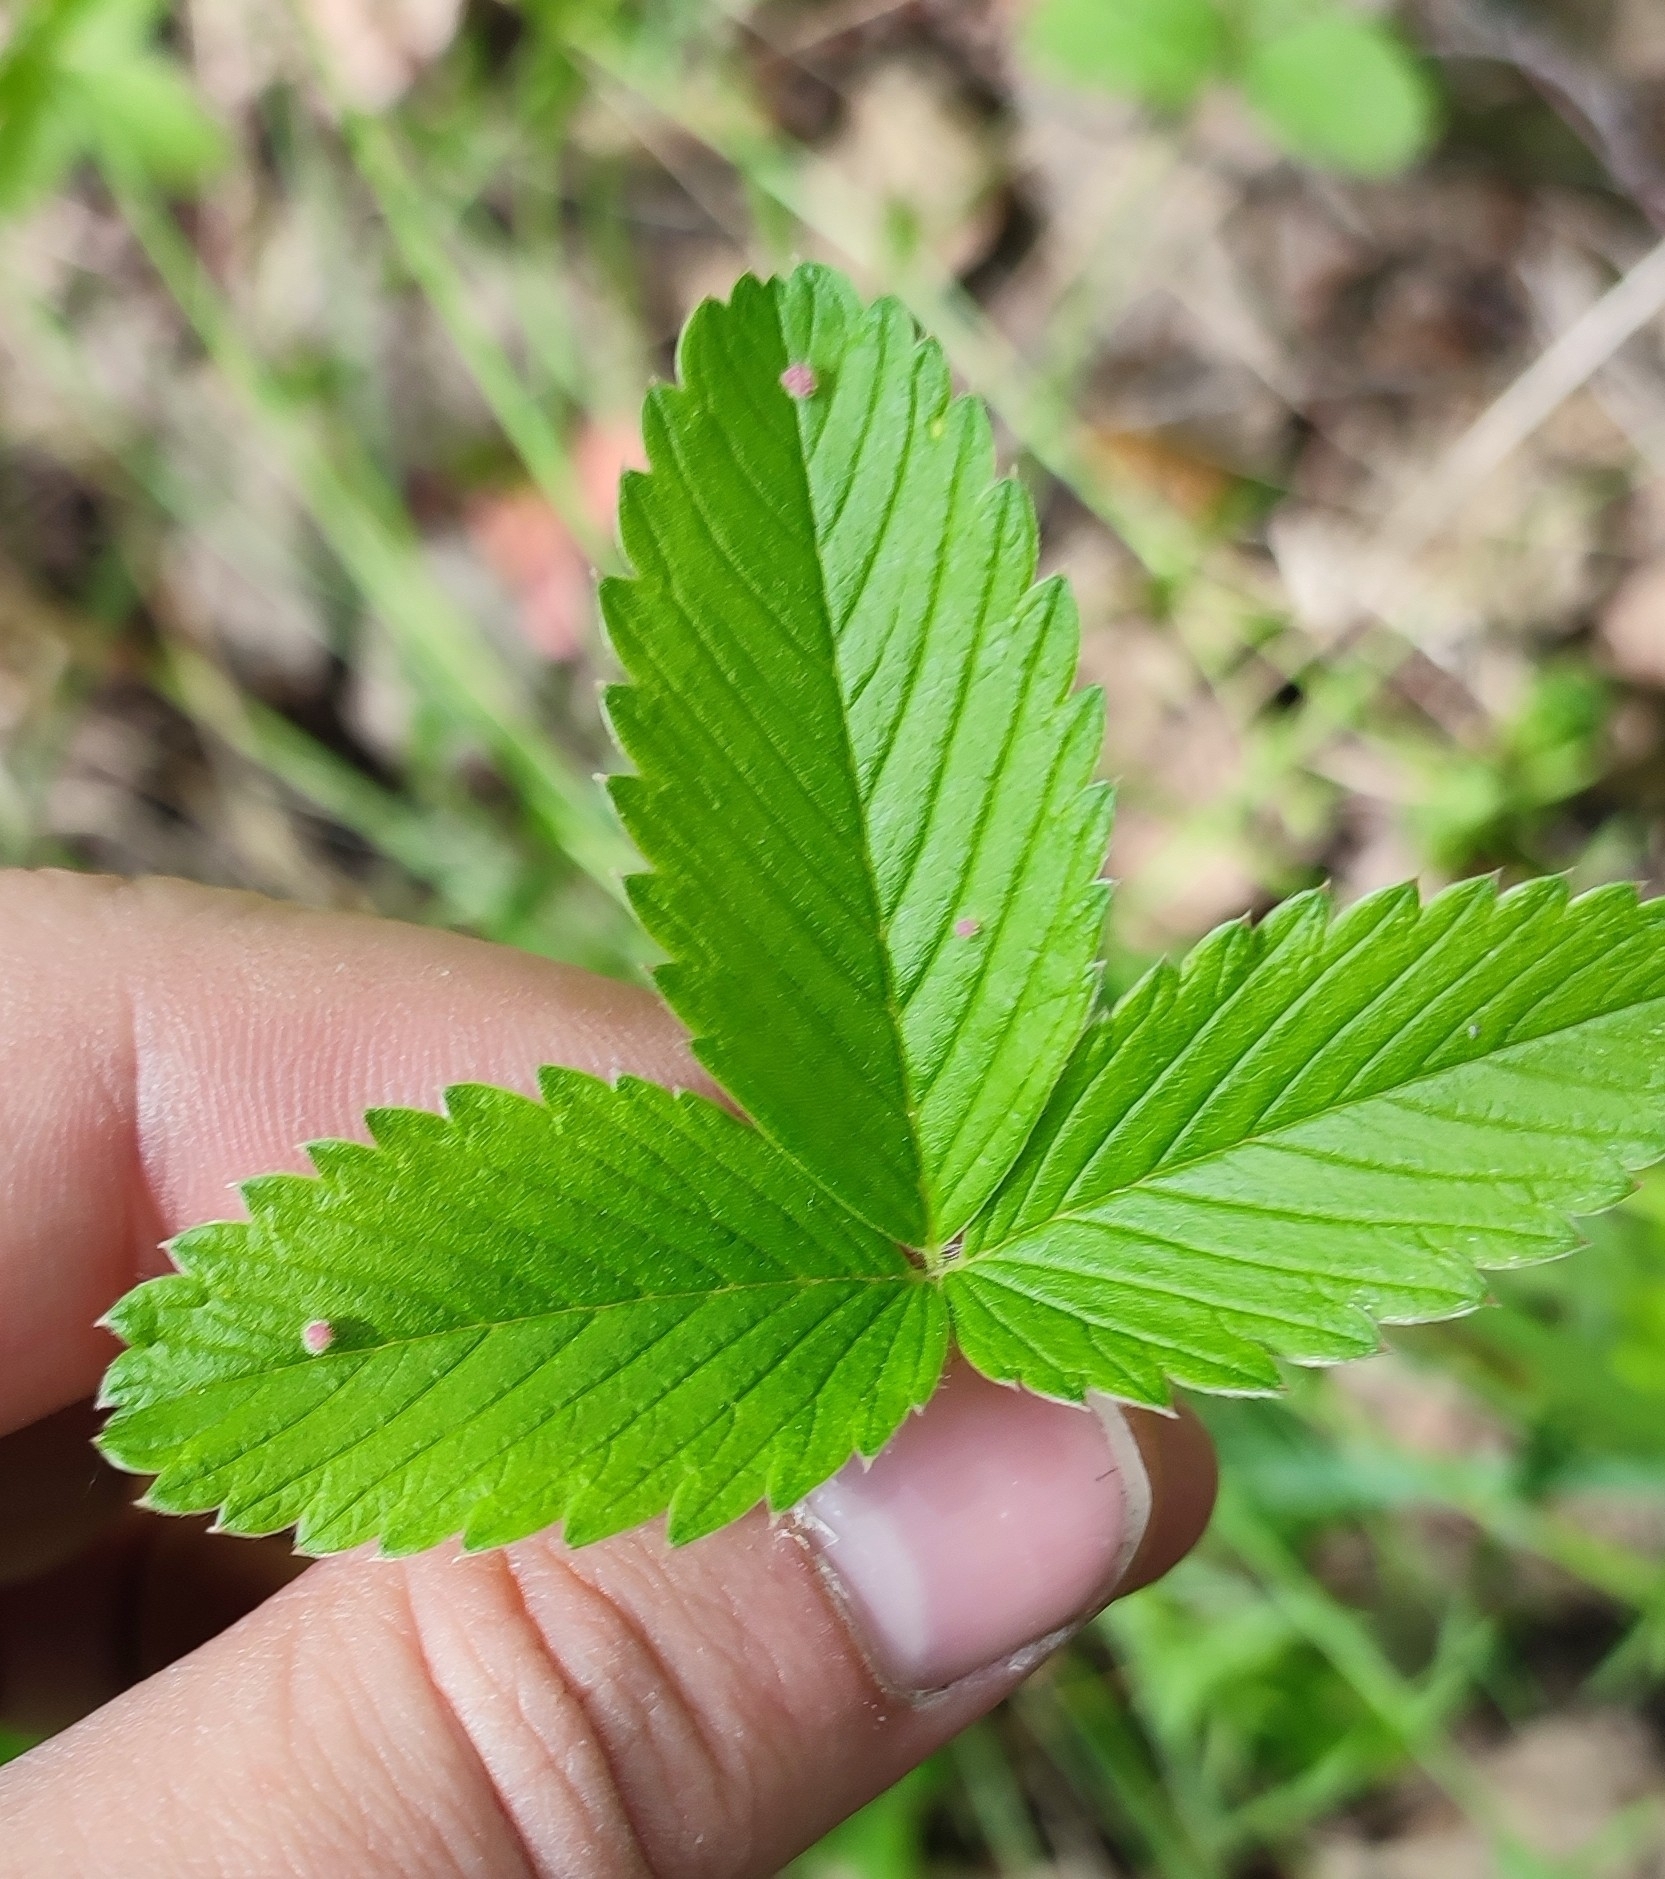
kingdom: Plantae
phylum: Tracheophyta
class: Magnoliopsida
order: Rosales
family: Rosaceae
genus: Fragaria
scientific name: Fragaria viridis
